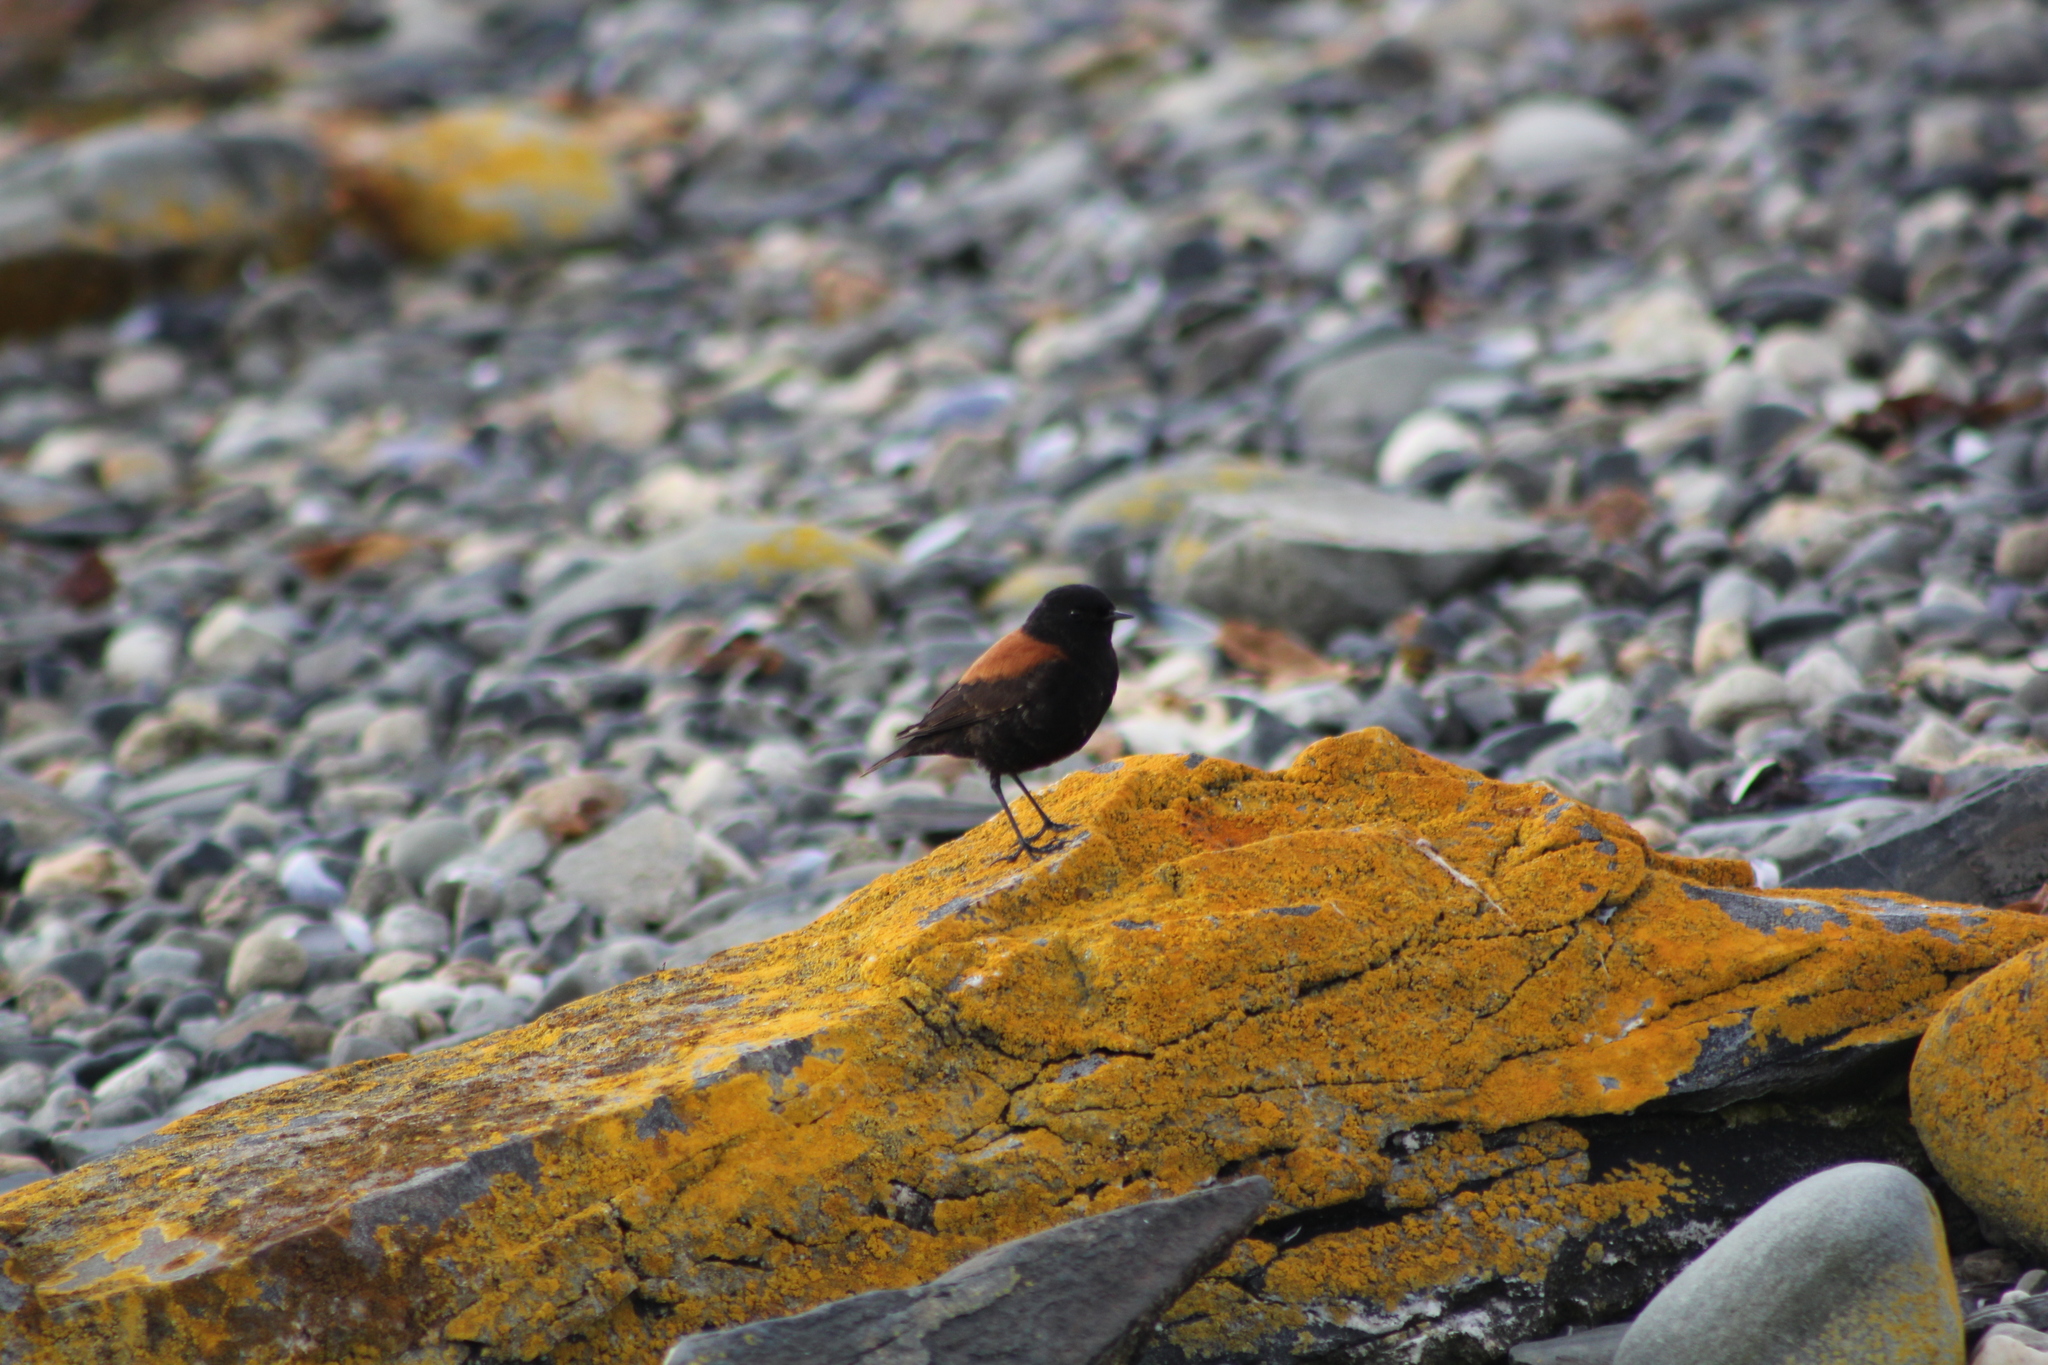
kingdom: Animalia
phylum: Chordata
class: Aves
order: Passeriformes
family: Tyrannidae
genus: Lessonia
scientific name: Lessonia rufa
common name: Austral negrito
